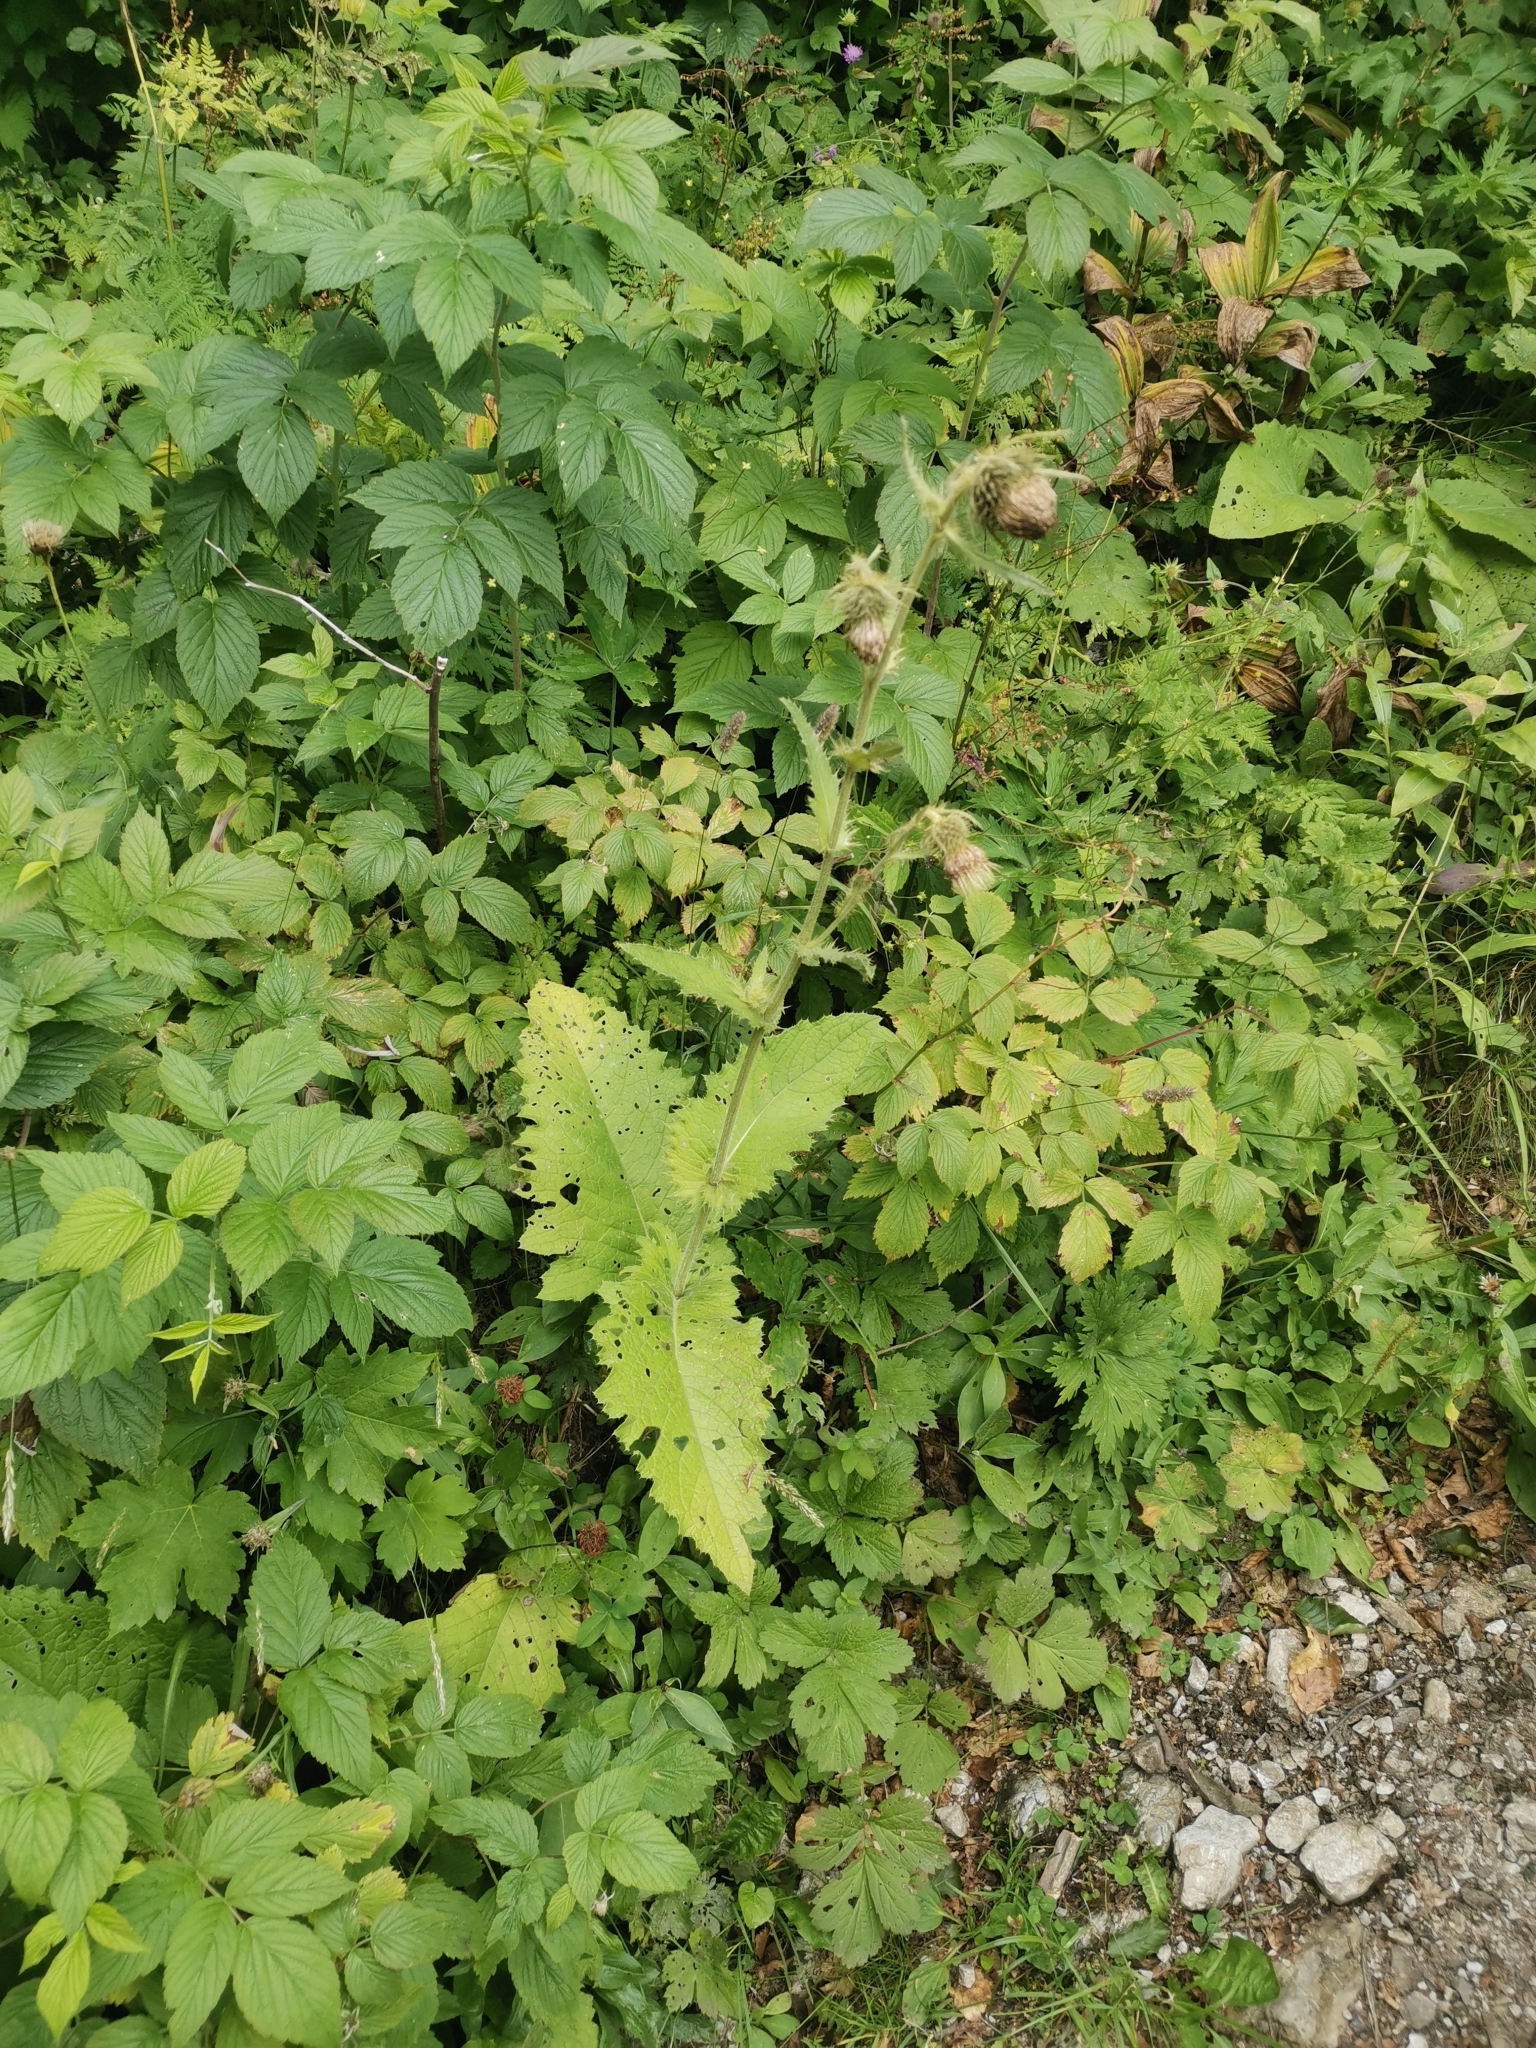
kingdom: Plantae
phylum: Tracheophyta
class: Magnoliopsida
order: Asterales
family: Asteraceae
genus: Cirsium
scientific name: Cirsium carniolicum
